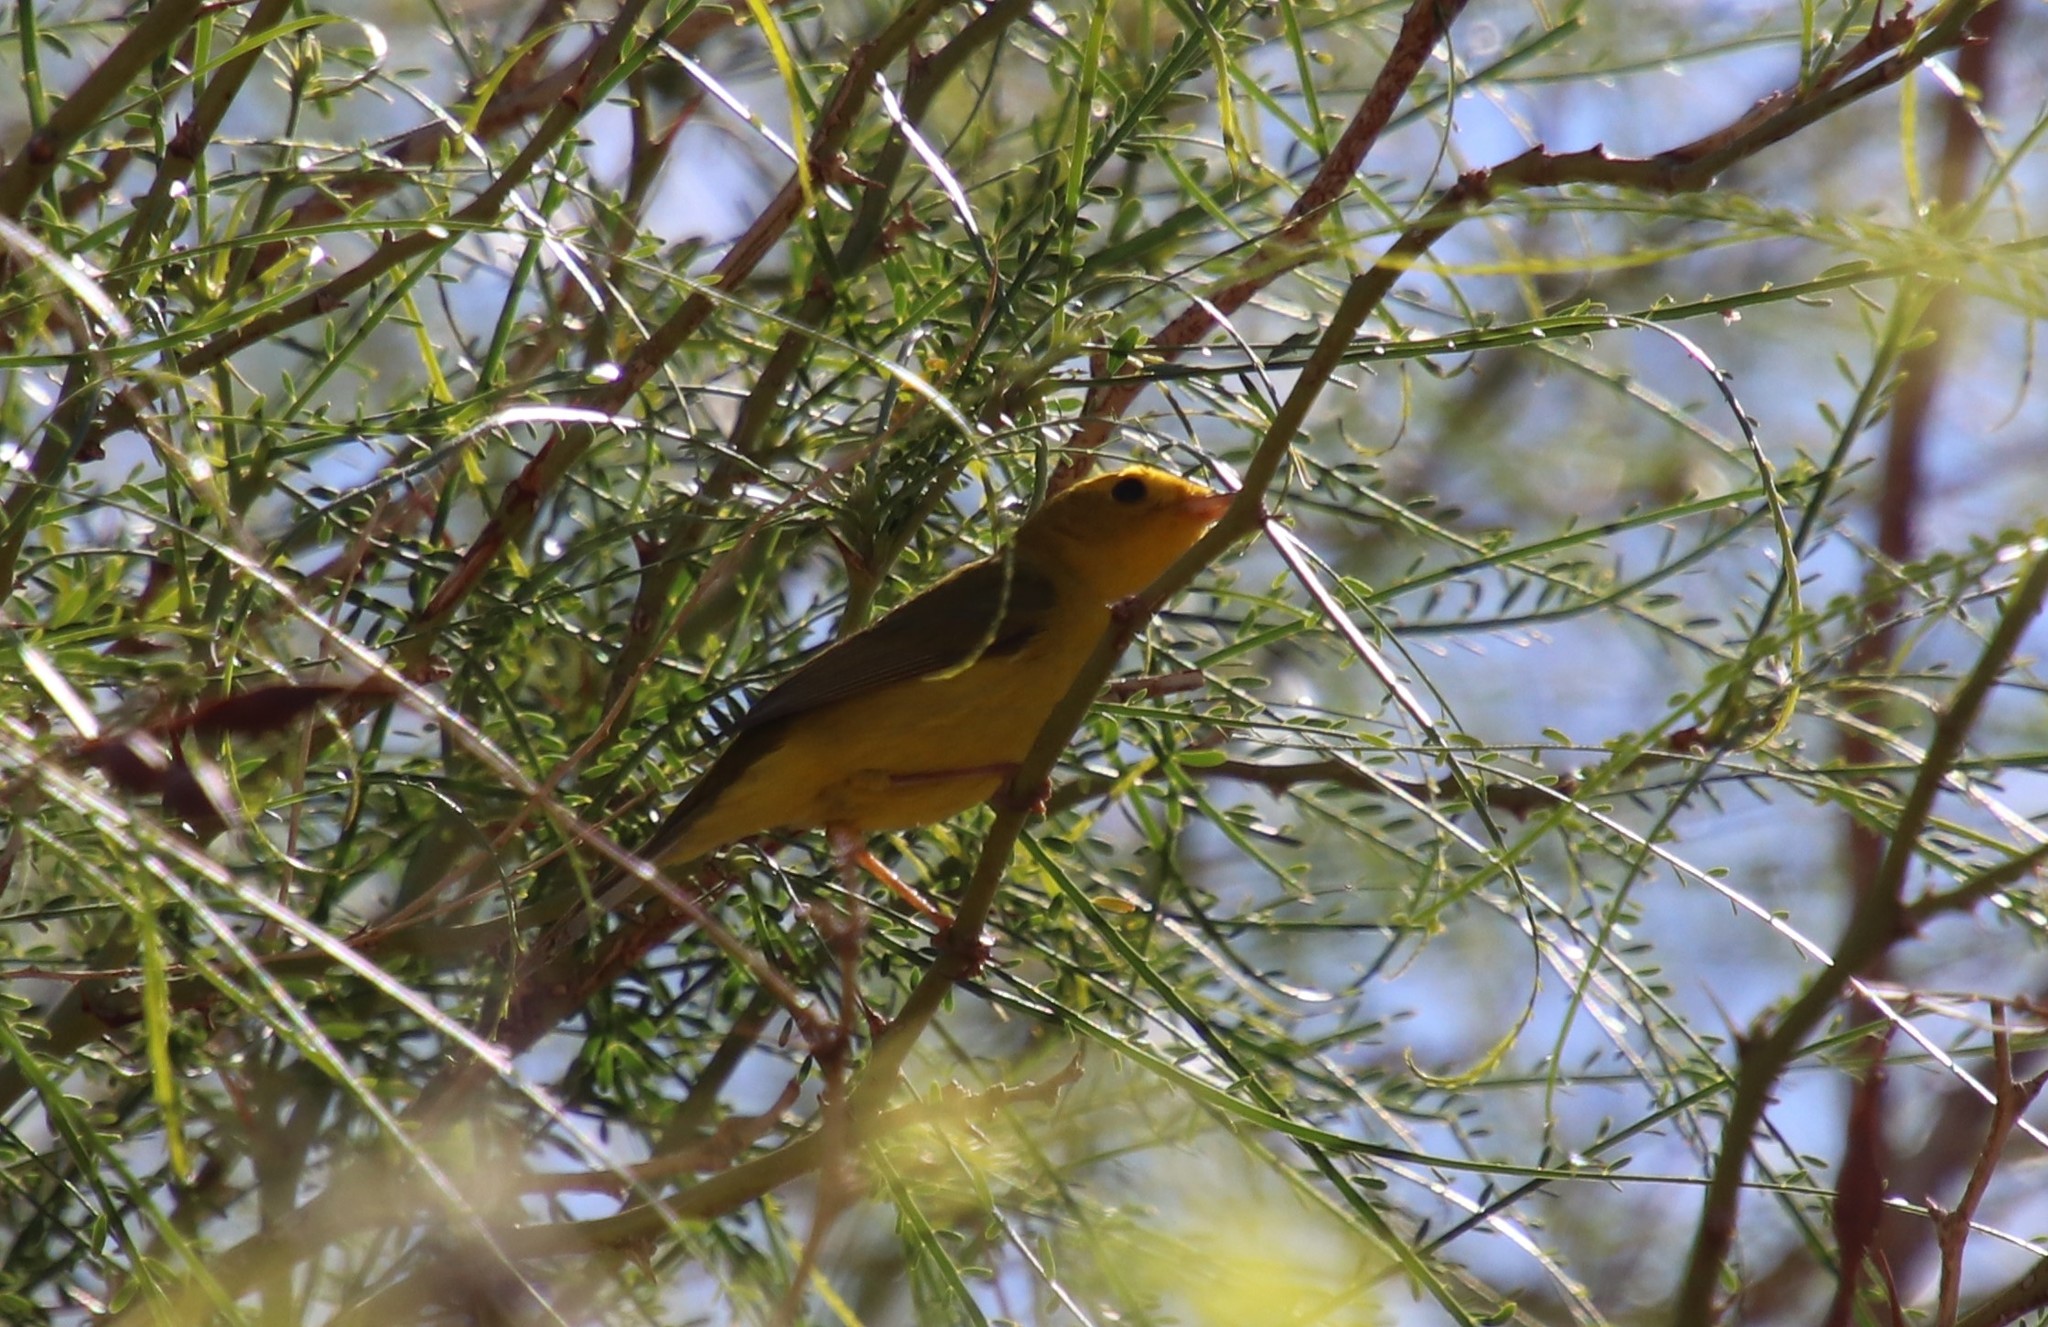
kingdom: Animalia
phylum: Chordata
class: Aves
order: Passeriformes
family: Parulidae
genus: Cardellina
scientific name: Cardellina pusilla
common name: Wilson's warbler
